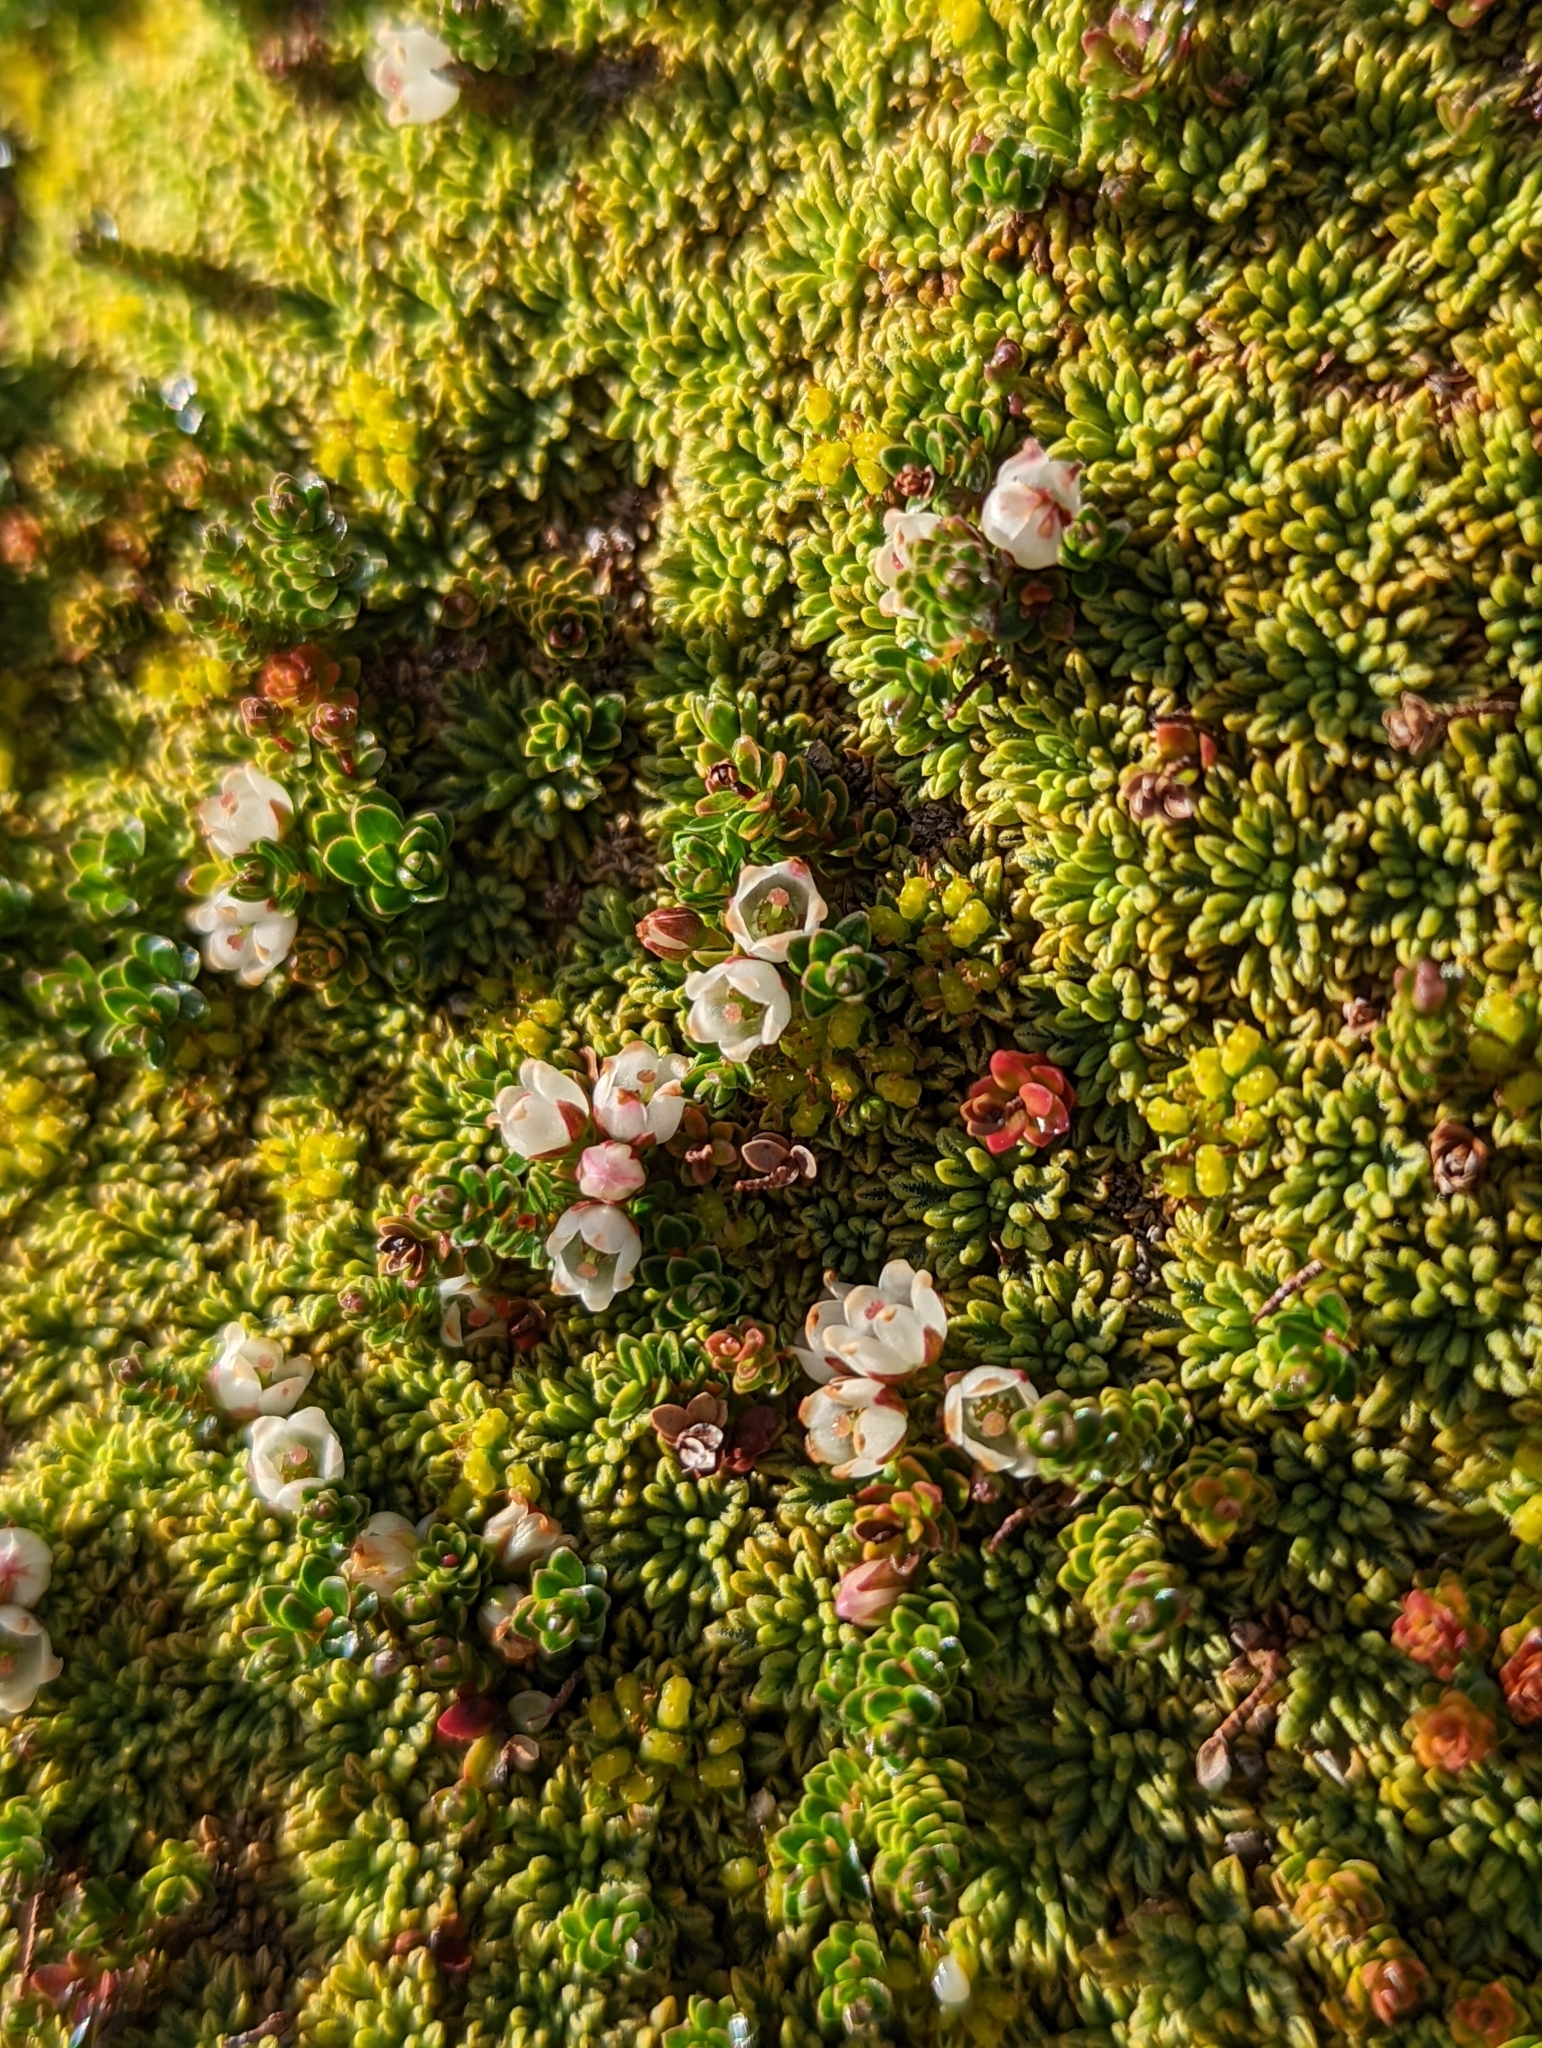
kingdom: Plantae
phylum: Tracheophyta
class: Magnoliopsida
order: Ericales
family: Ericaceae
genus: Gaultheria
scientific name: Gaultheria pumila
